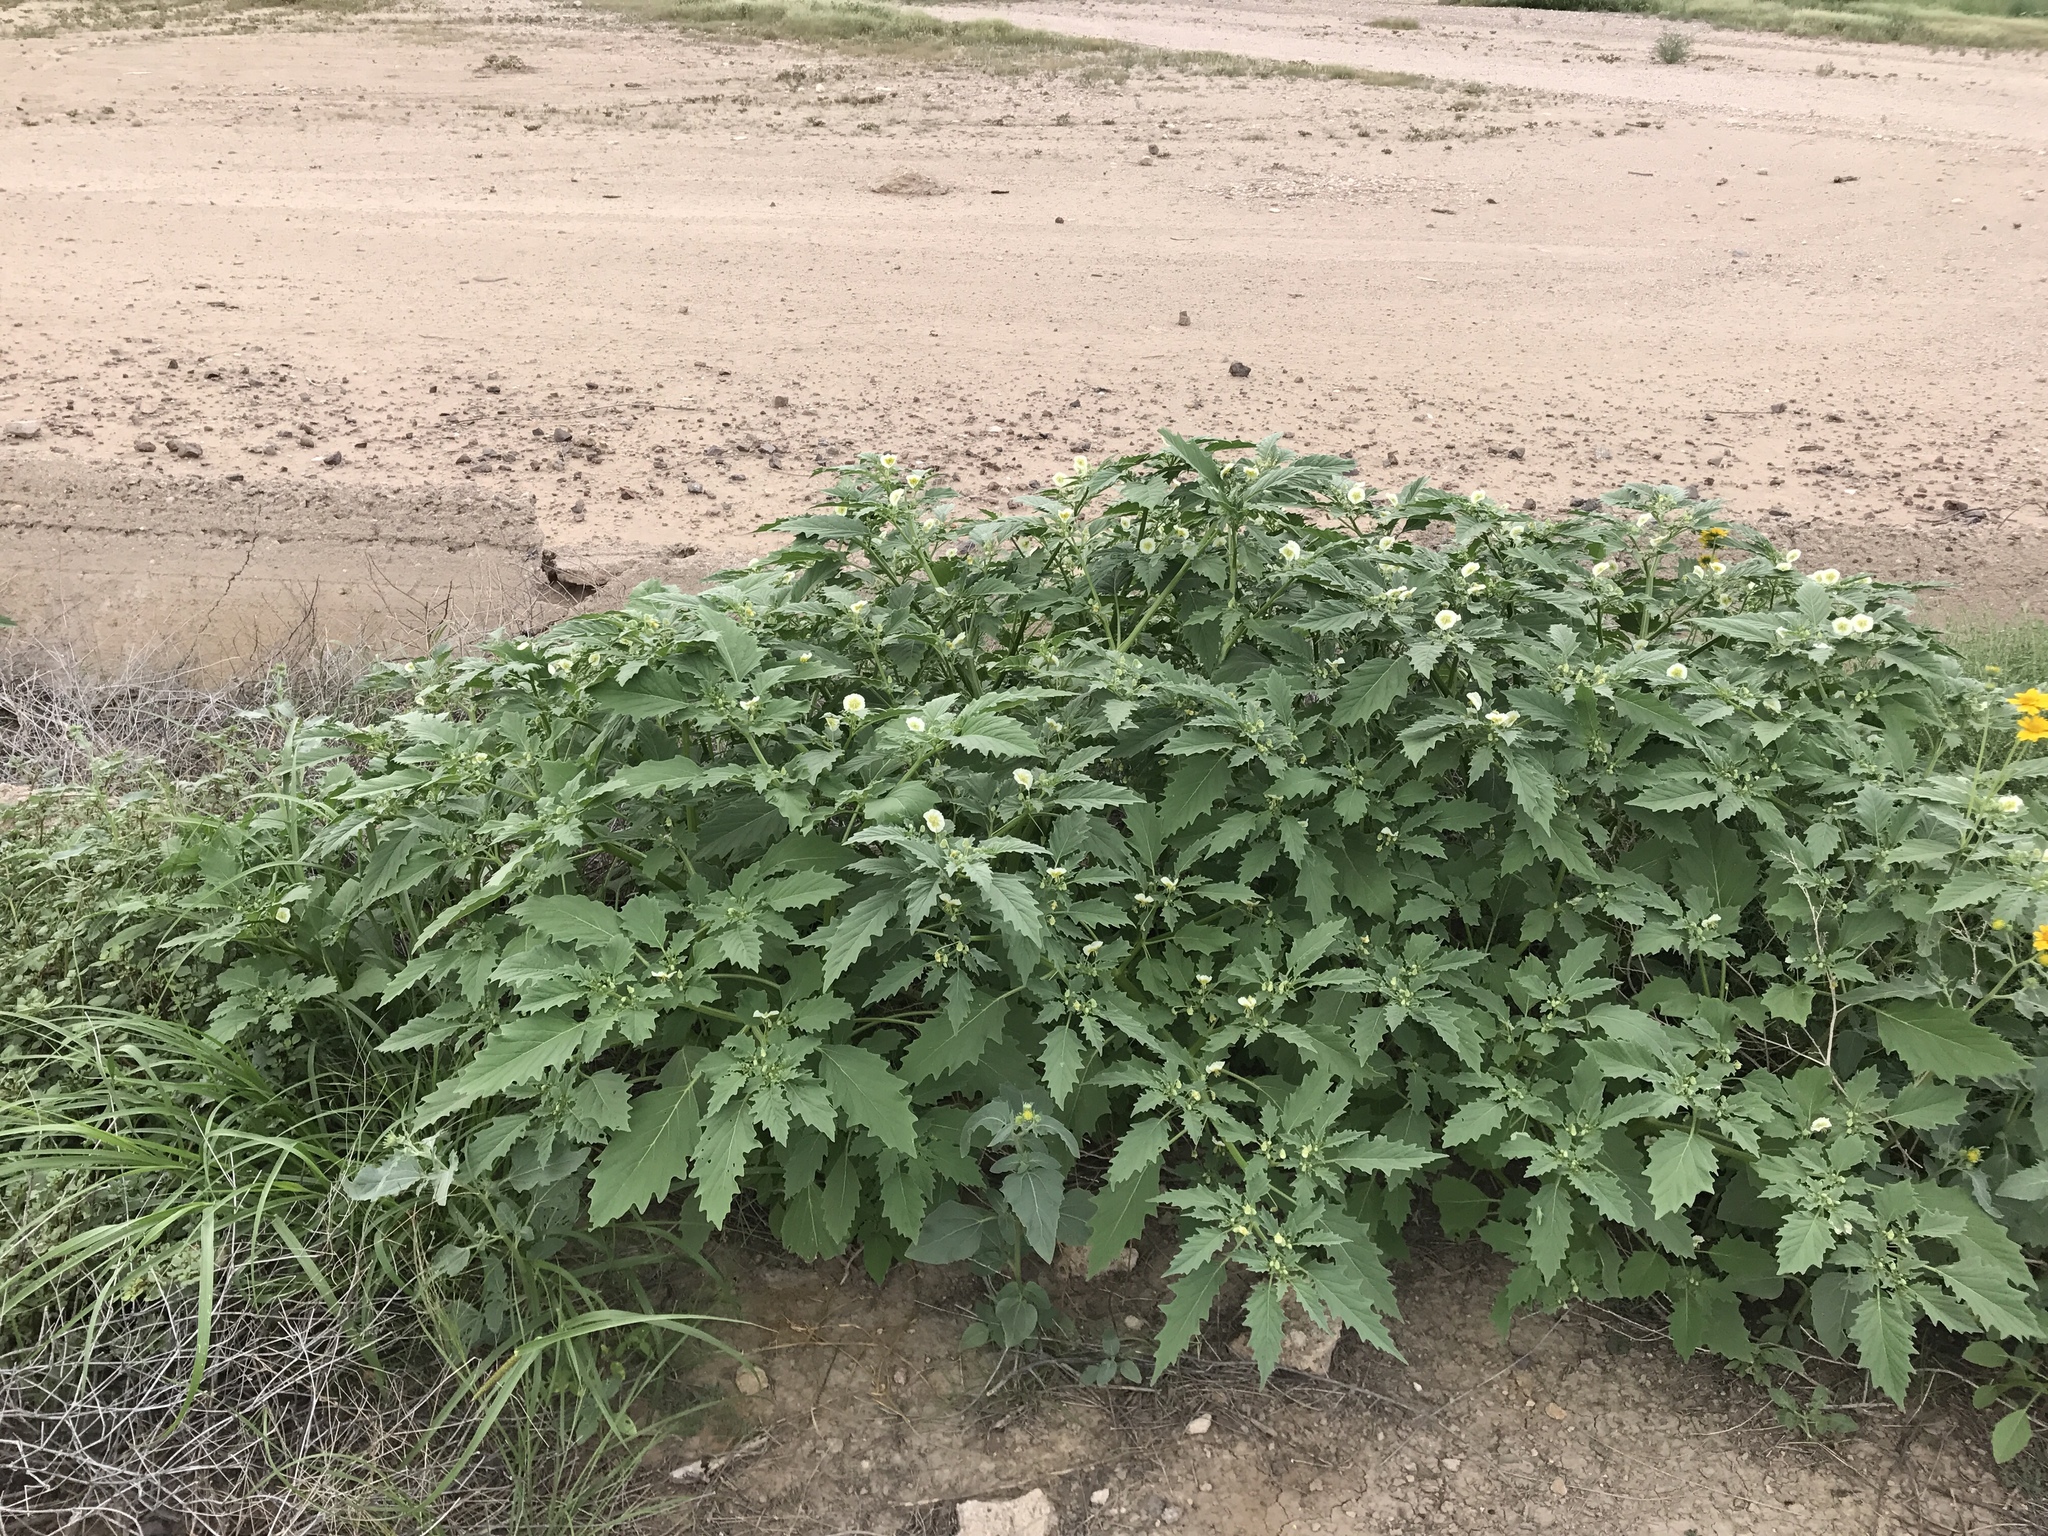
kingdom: Plantae
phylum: Tracheophyta
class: Magnoliopsida
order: Solanales
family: Solanaceae
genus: Physalis
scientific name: Physalis acutifolia
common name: Wright's ground-cherry
